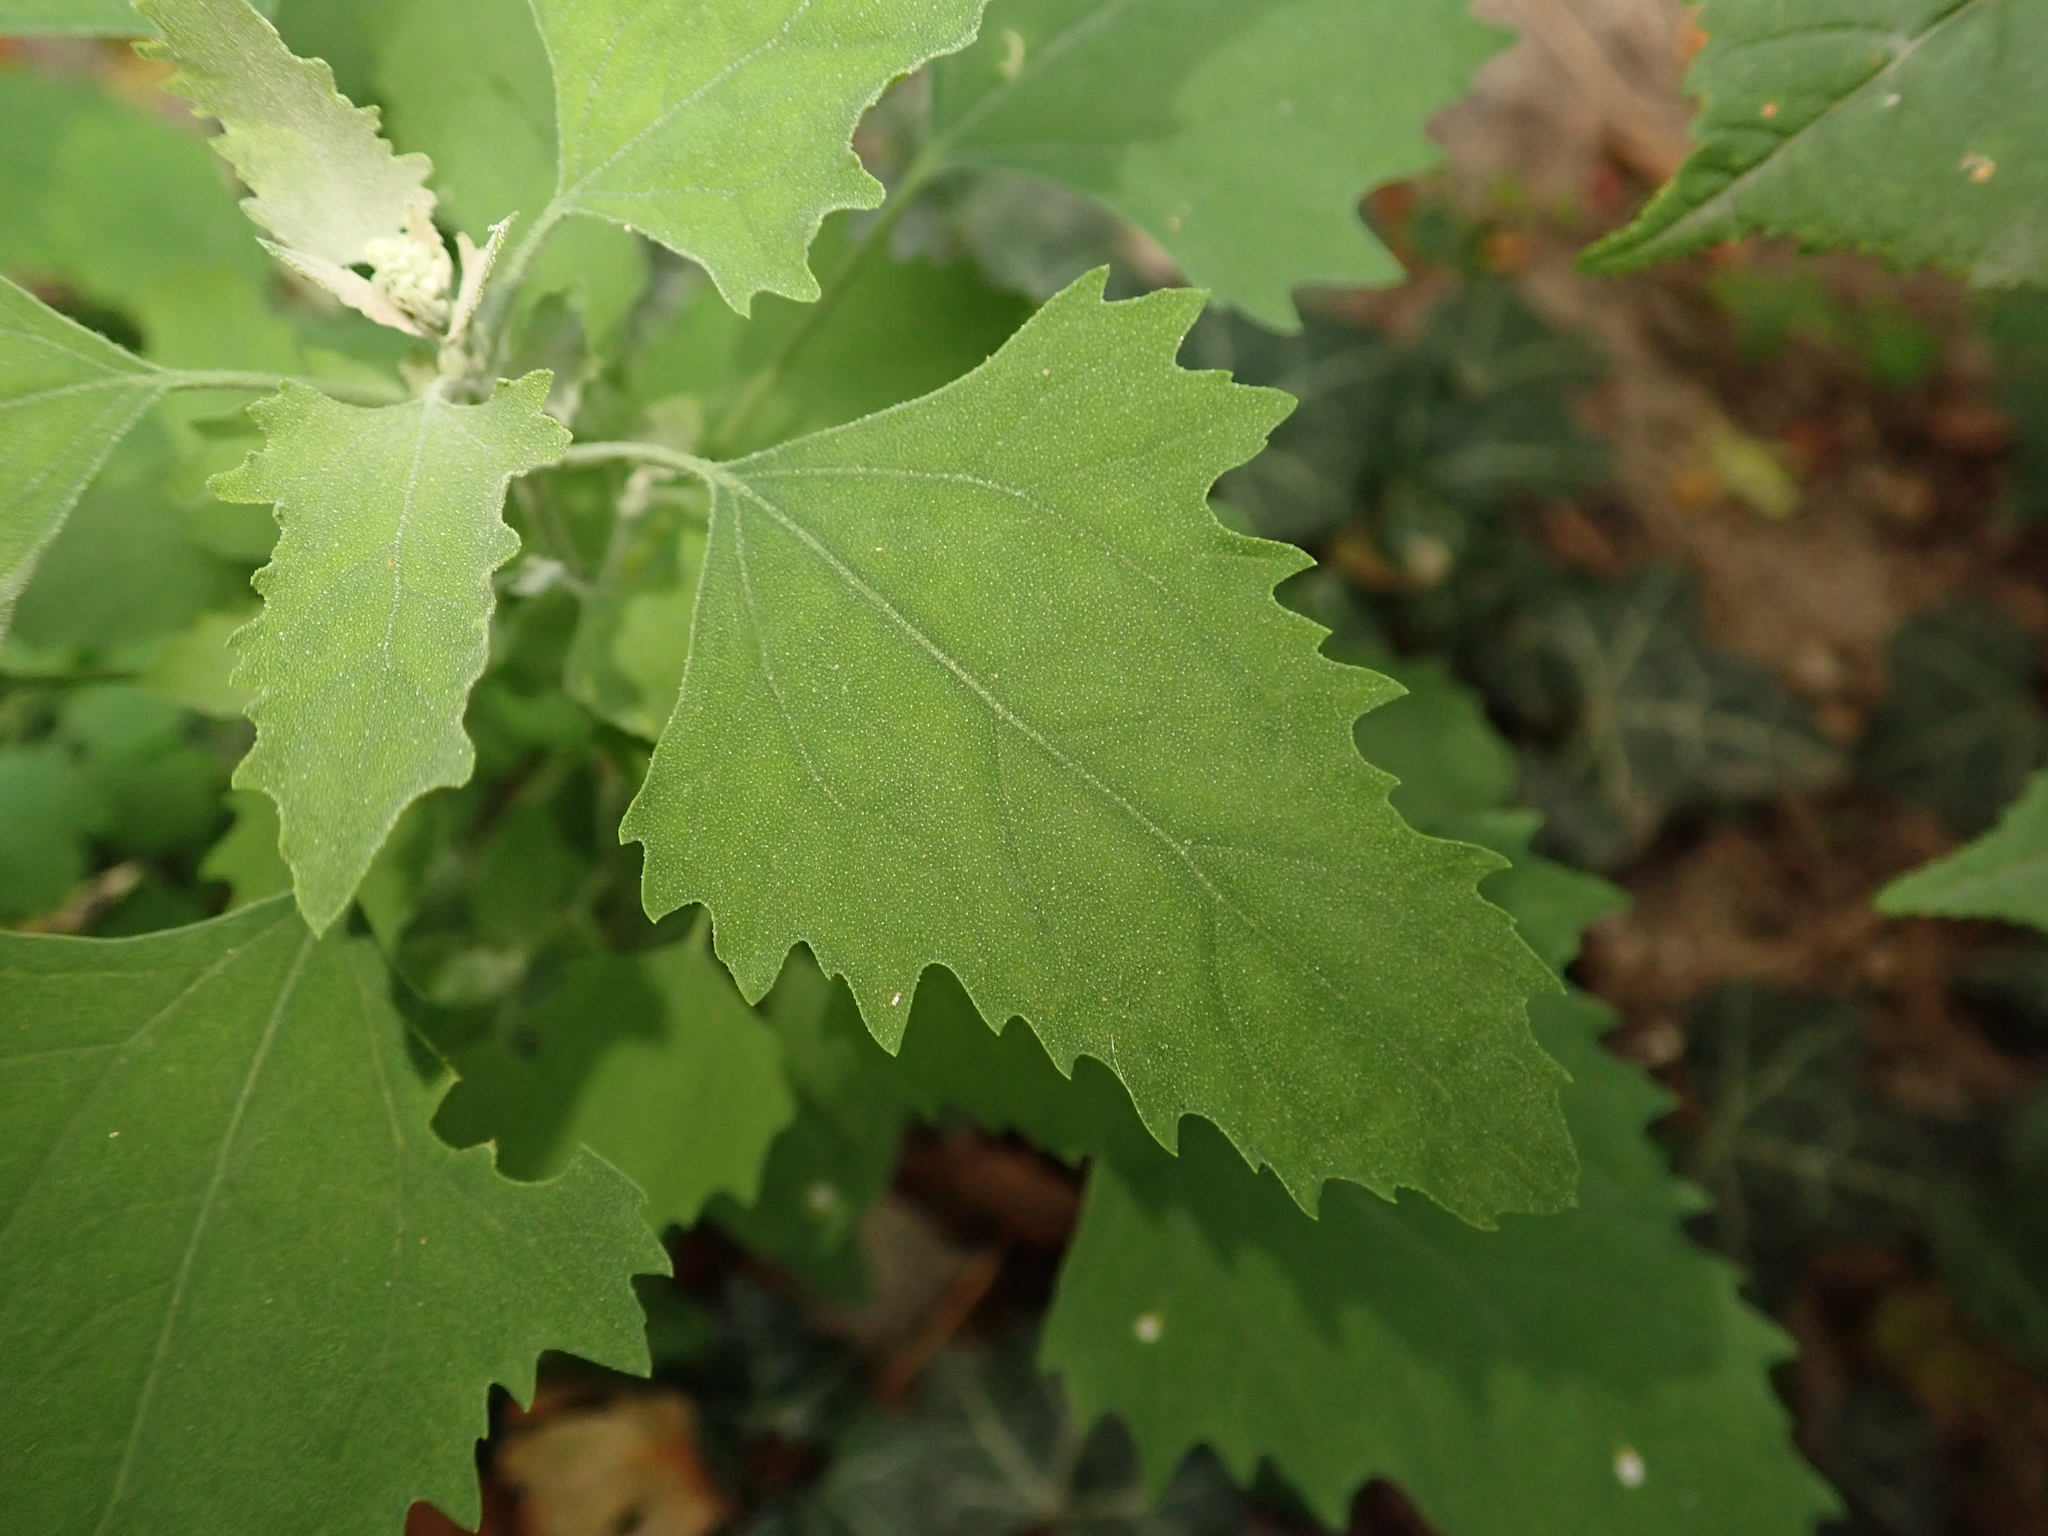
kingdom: Plantae
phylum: Tracheophyta
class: Magnoliopsida
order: Caryophyllales
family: Amaranthaceae
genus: Chenopodium
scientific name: Chenopodium album
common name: Fat-hen
